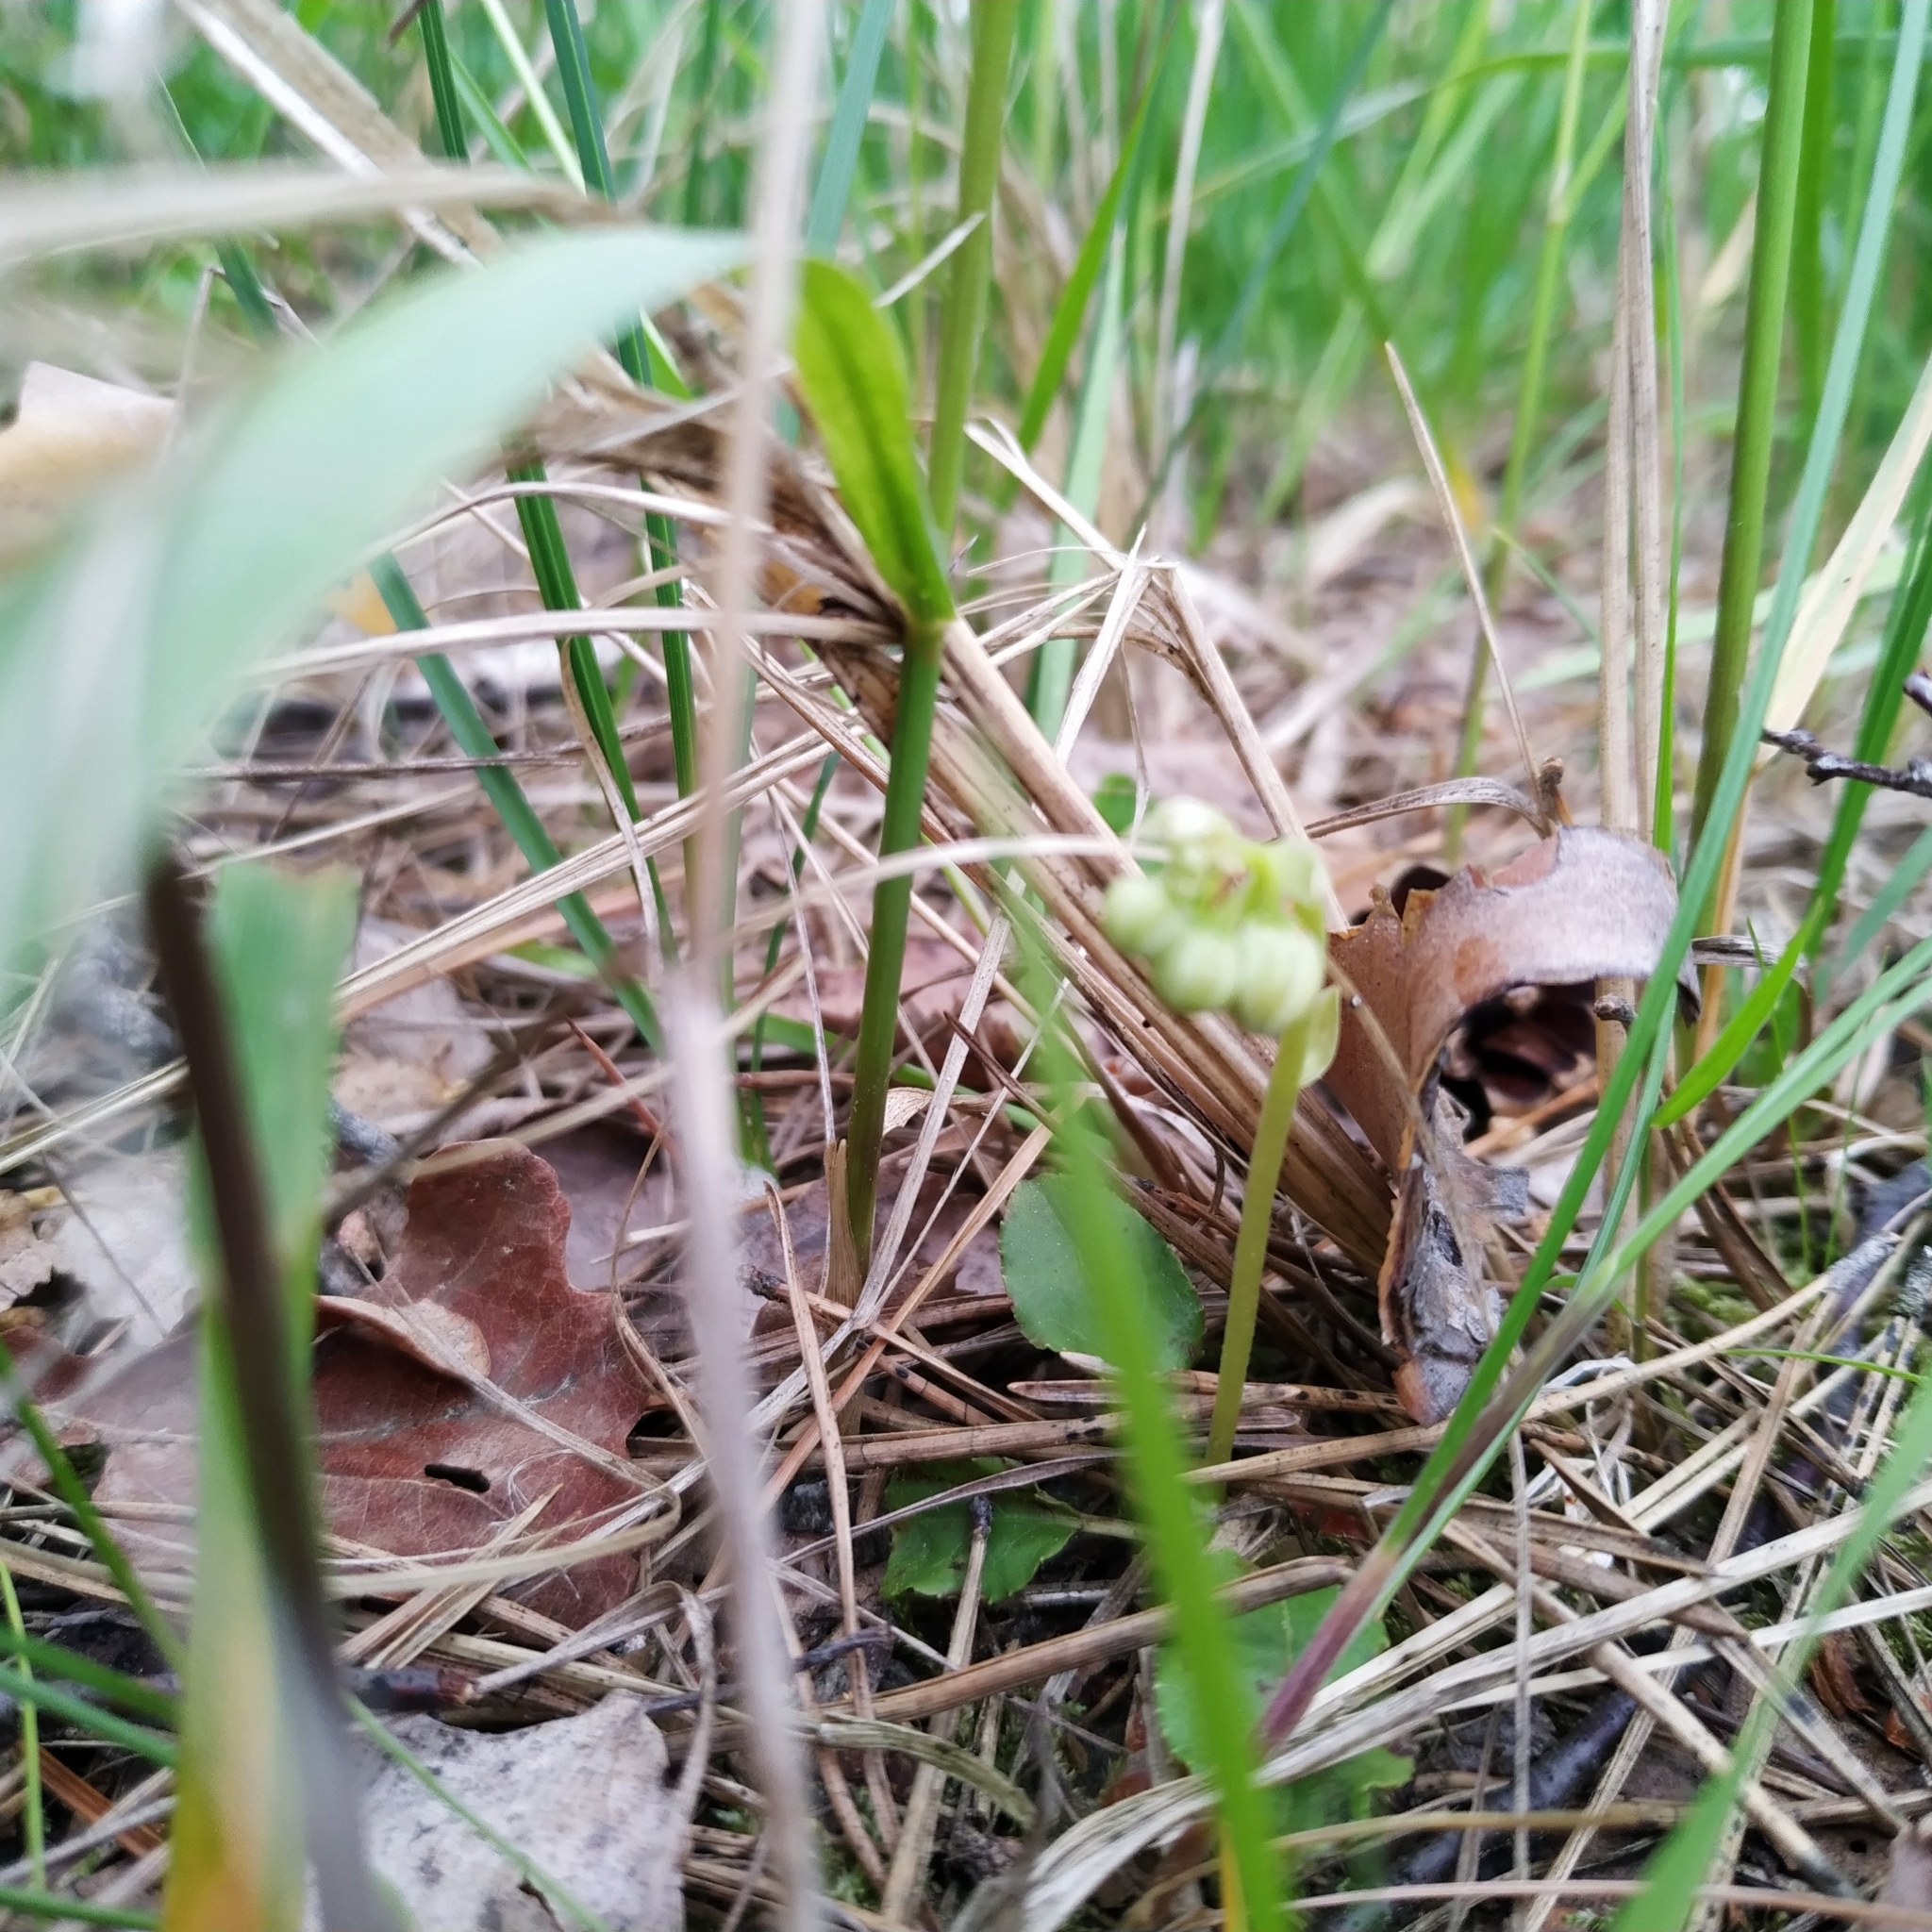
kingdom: Plantae
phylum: Tracheophyta
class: Magnoliopsida
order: Ericales
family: Ericaceae
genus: Orthilia
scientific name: Orthilia secunda
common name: One-sided orthilia
